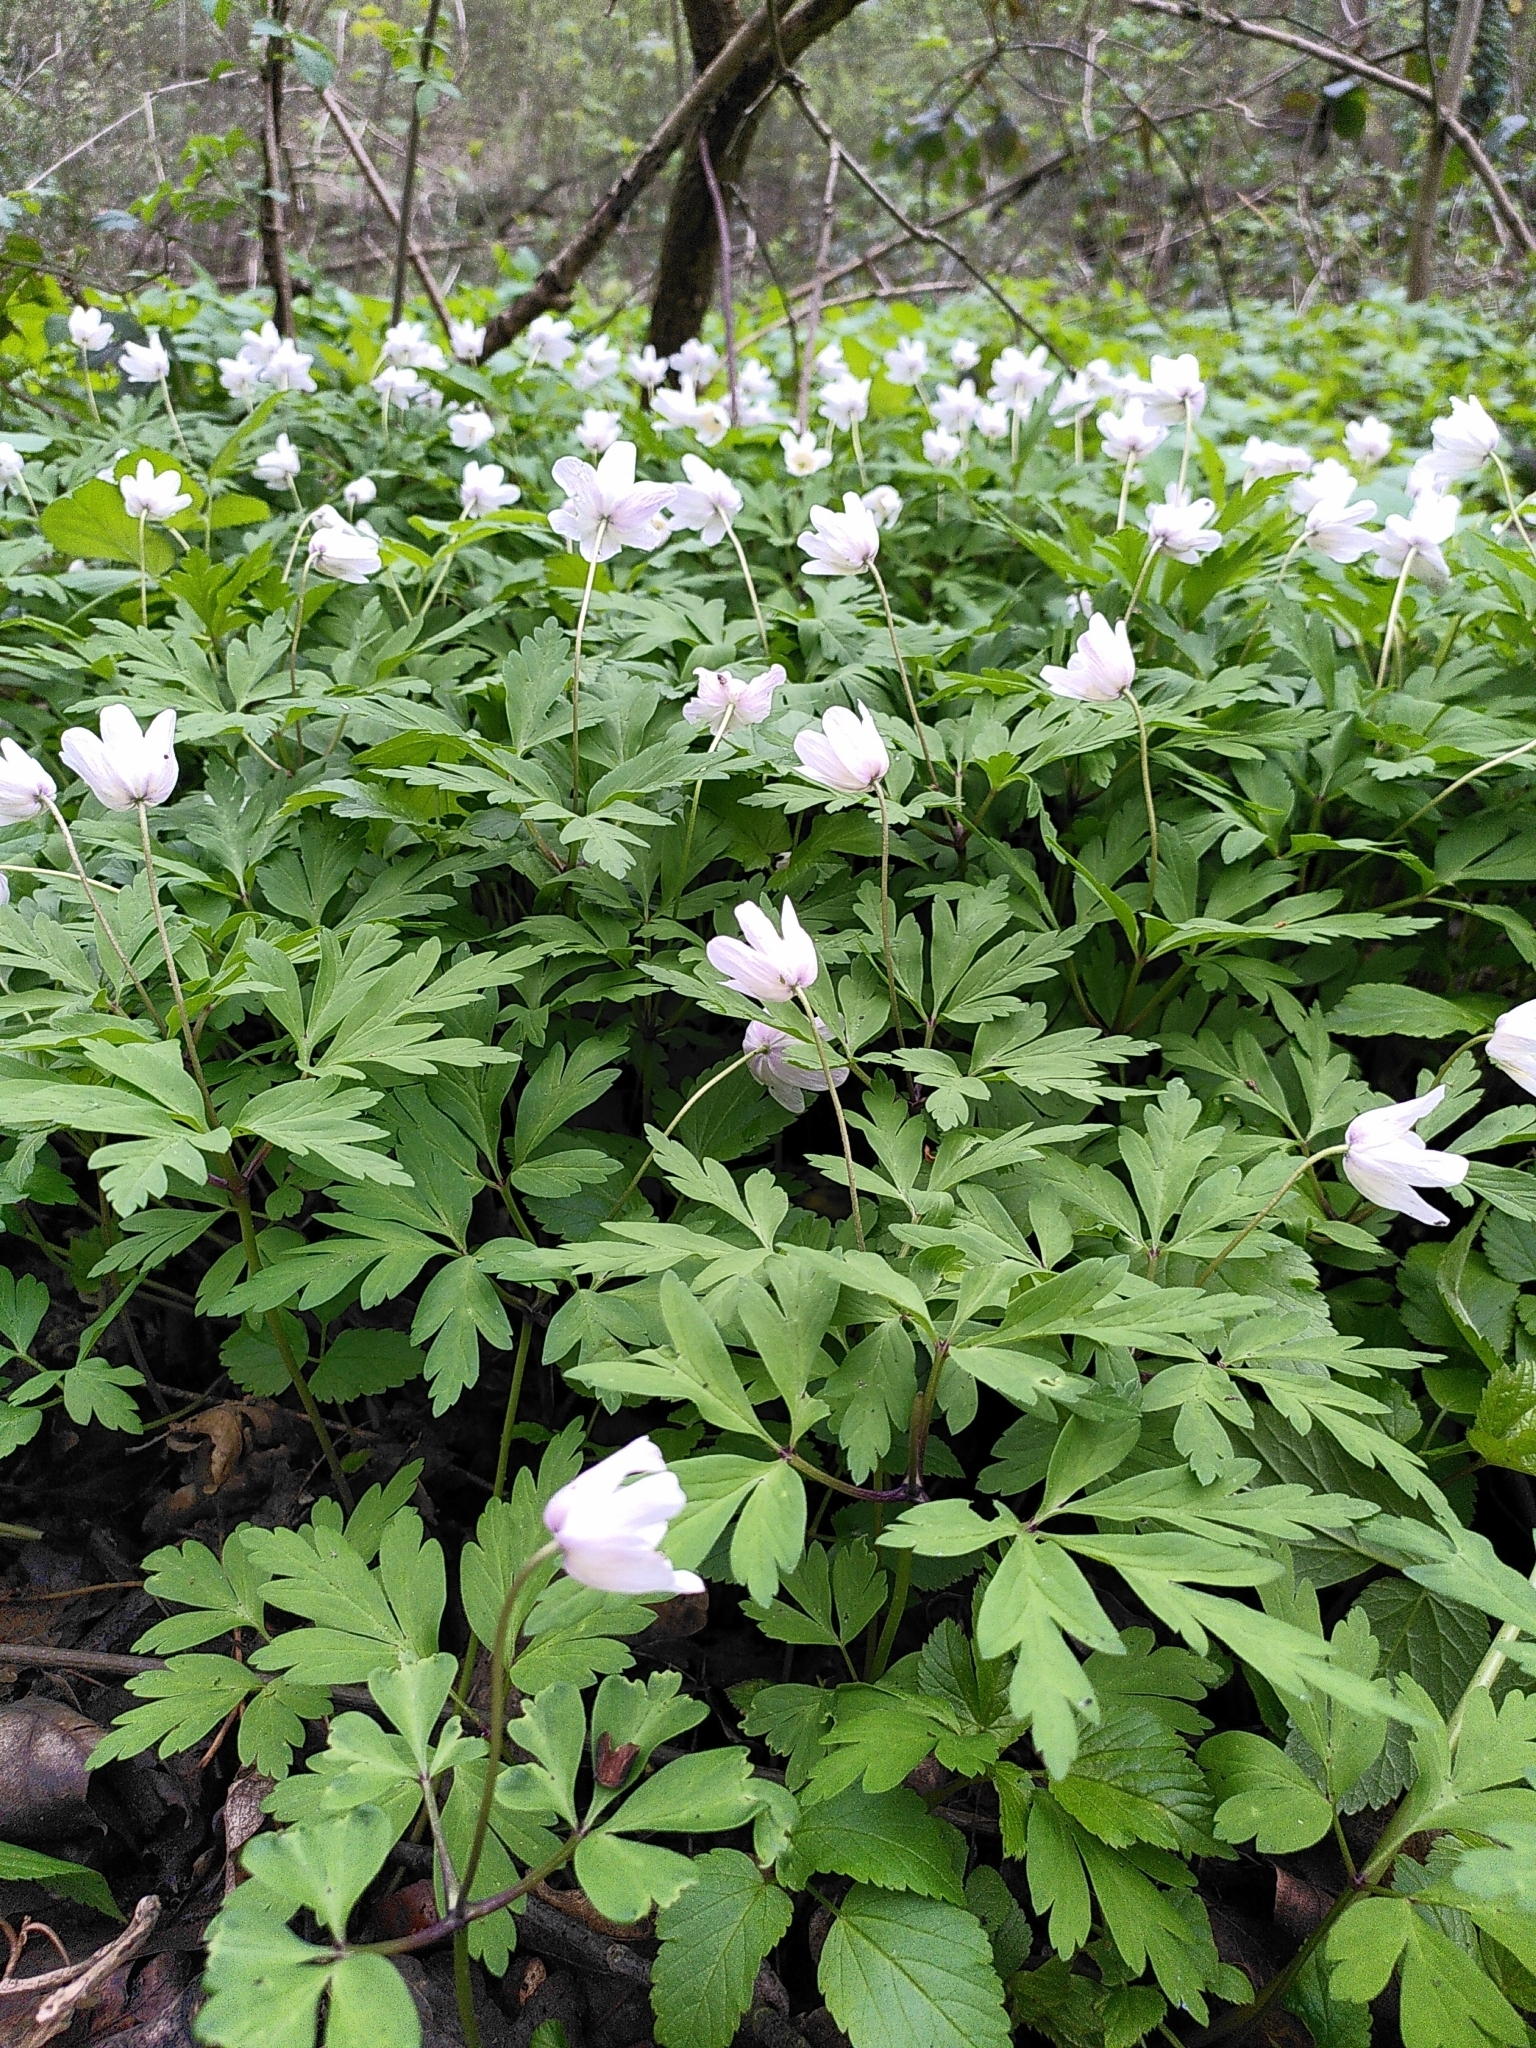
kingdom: Plantae
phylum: Tracheophyta
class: Magnoliopsida
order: Ranunculales
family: Ranunculaceae
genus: Anemone
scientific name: Anemone nemorosa
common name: Wood anemone
